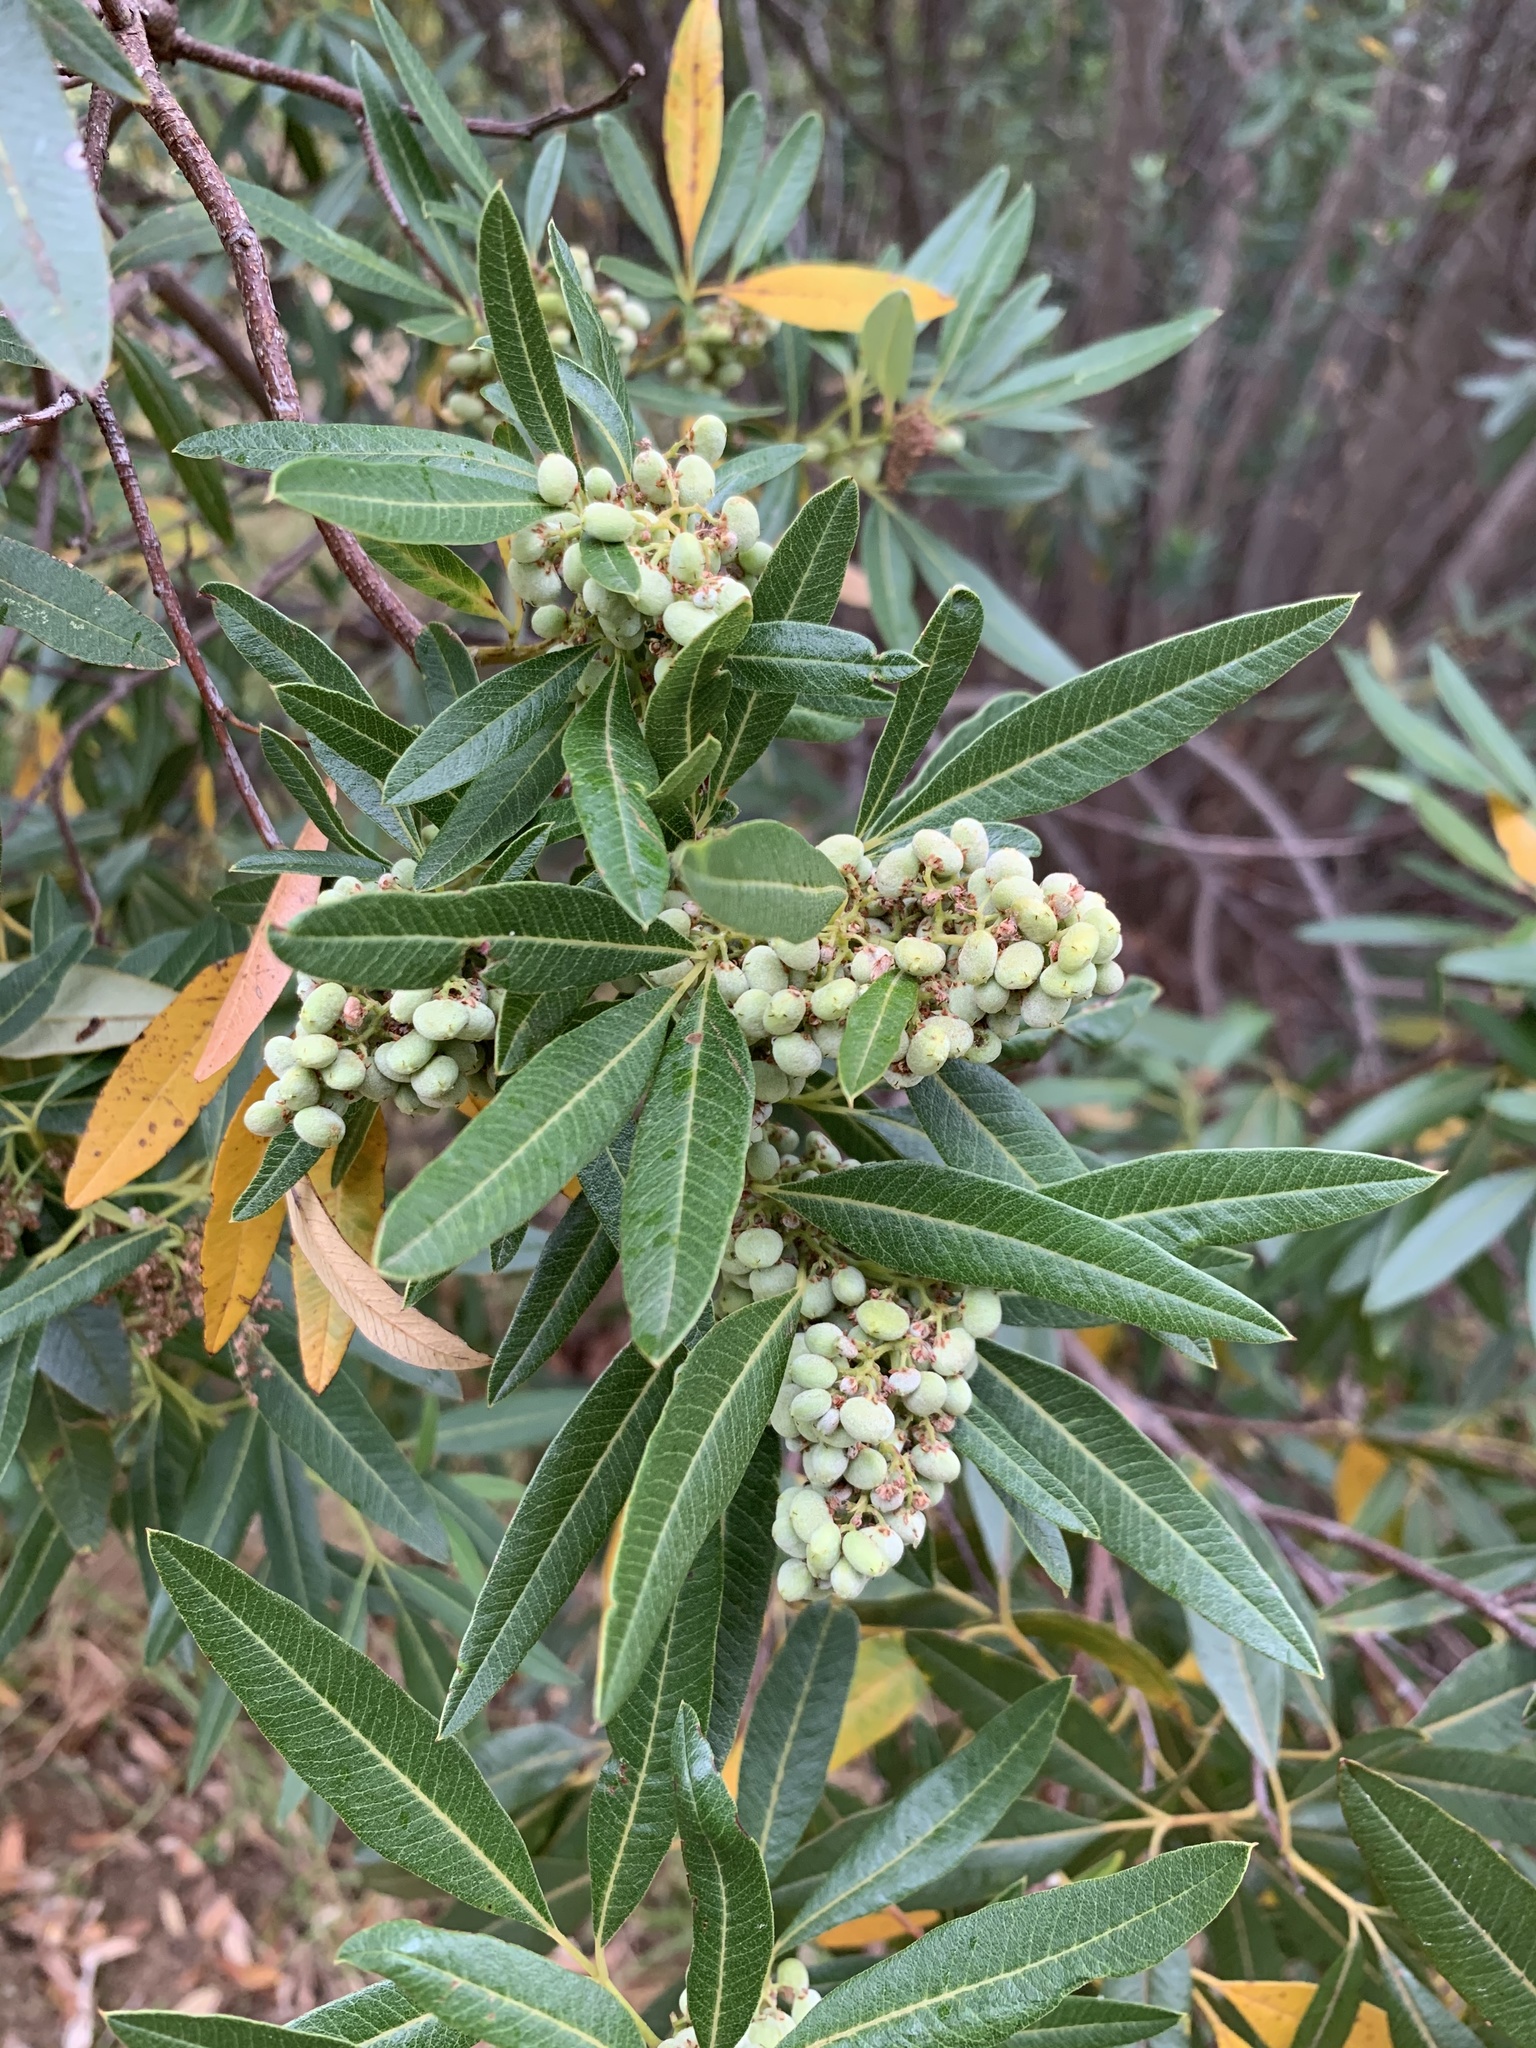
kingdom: Plantae
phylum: Tracheophyta
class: Magnoliopsida
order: Sapindales
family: Anacardiaceae
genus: Searsia
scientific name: Searsia angustifolia
